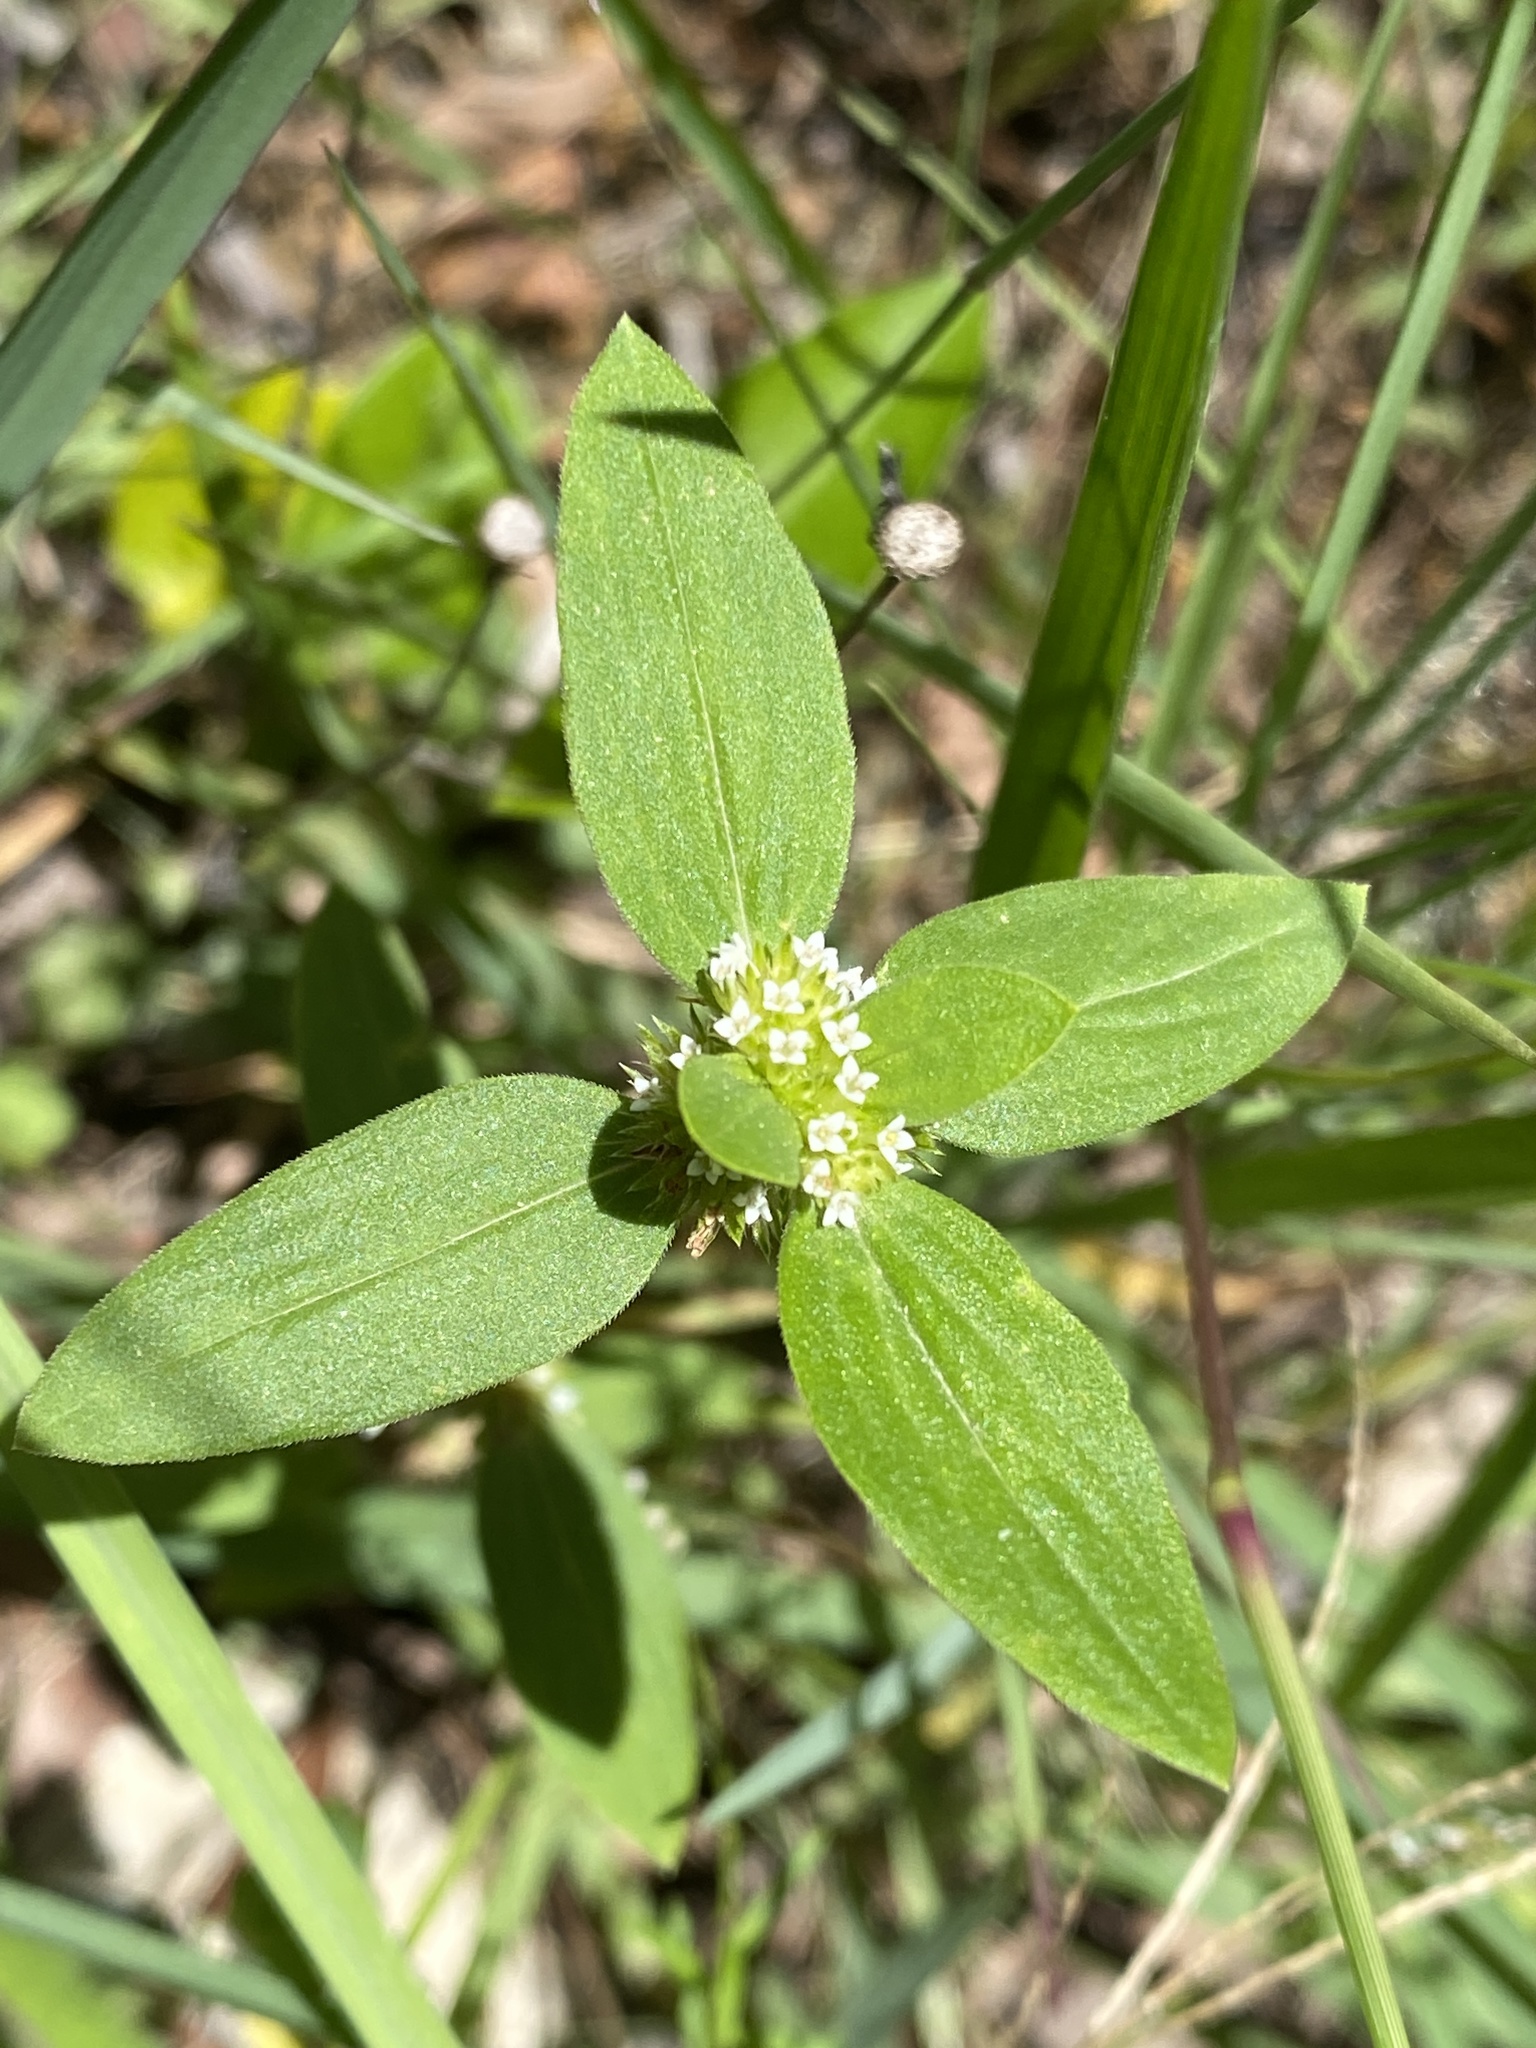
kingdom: Plantae
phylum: Tracheophyta
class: Magnoliopsida
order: Gentianales
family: Rubiaceae
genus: Mitracarpus
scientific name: Mitracarpus hirtus
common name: Tropical girdlepod
